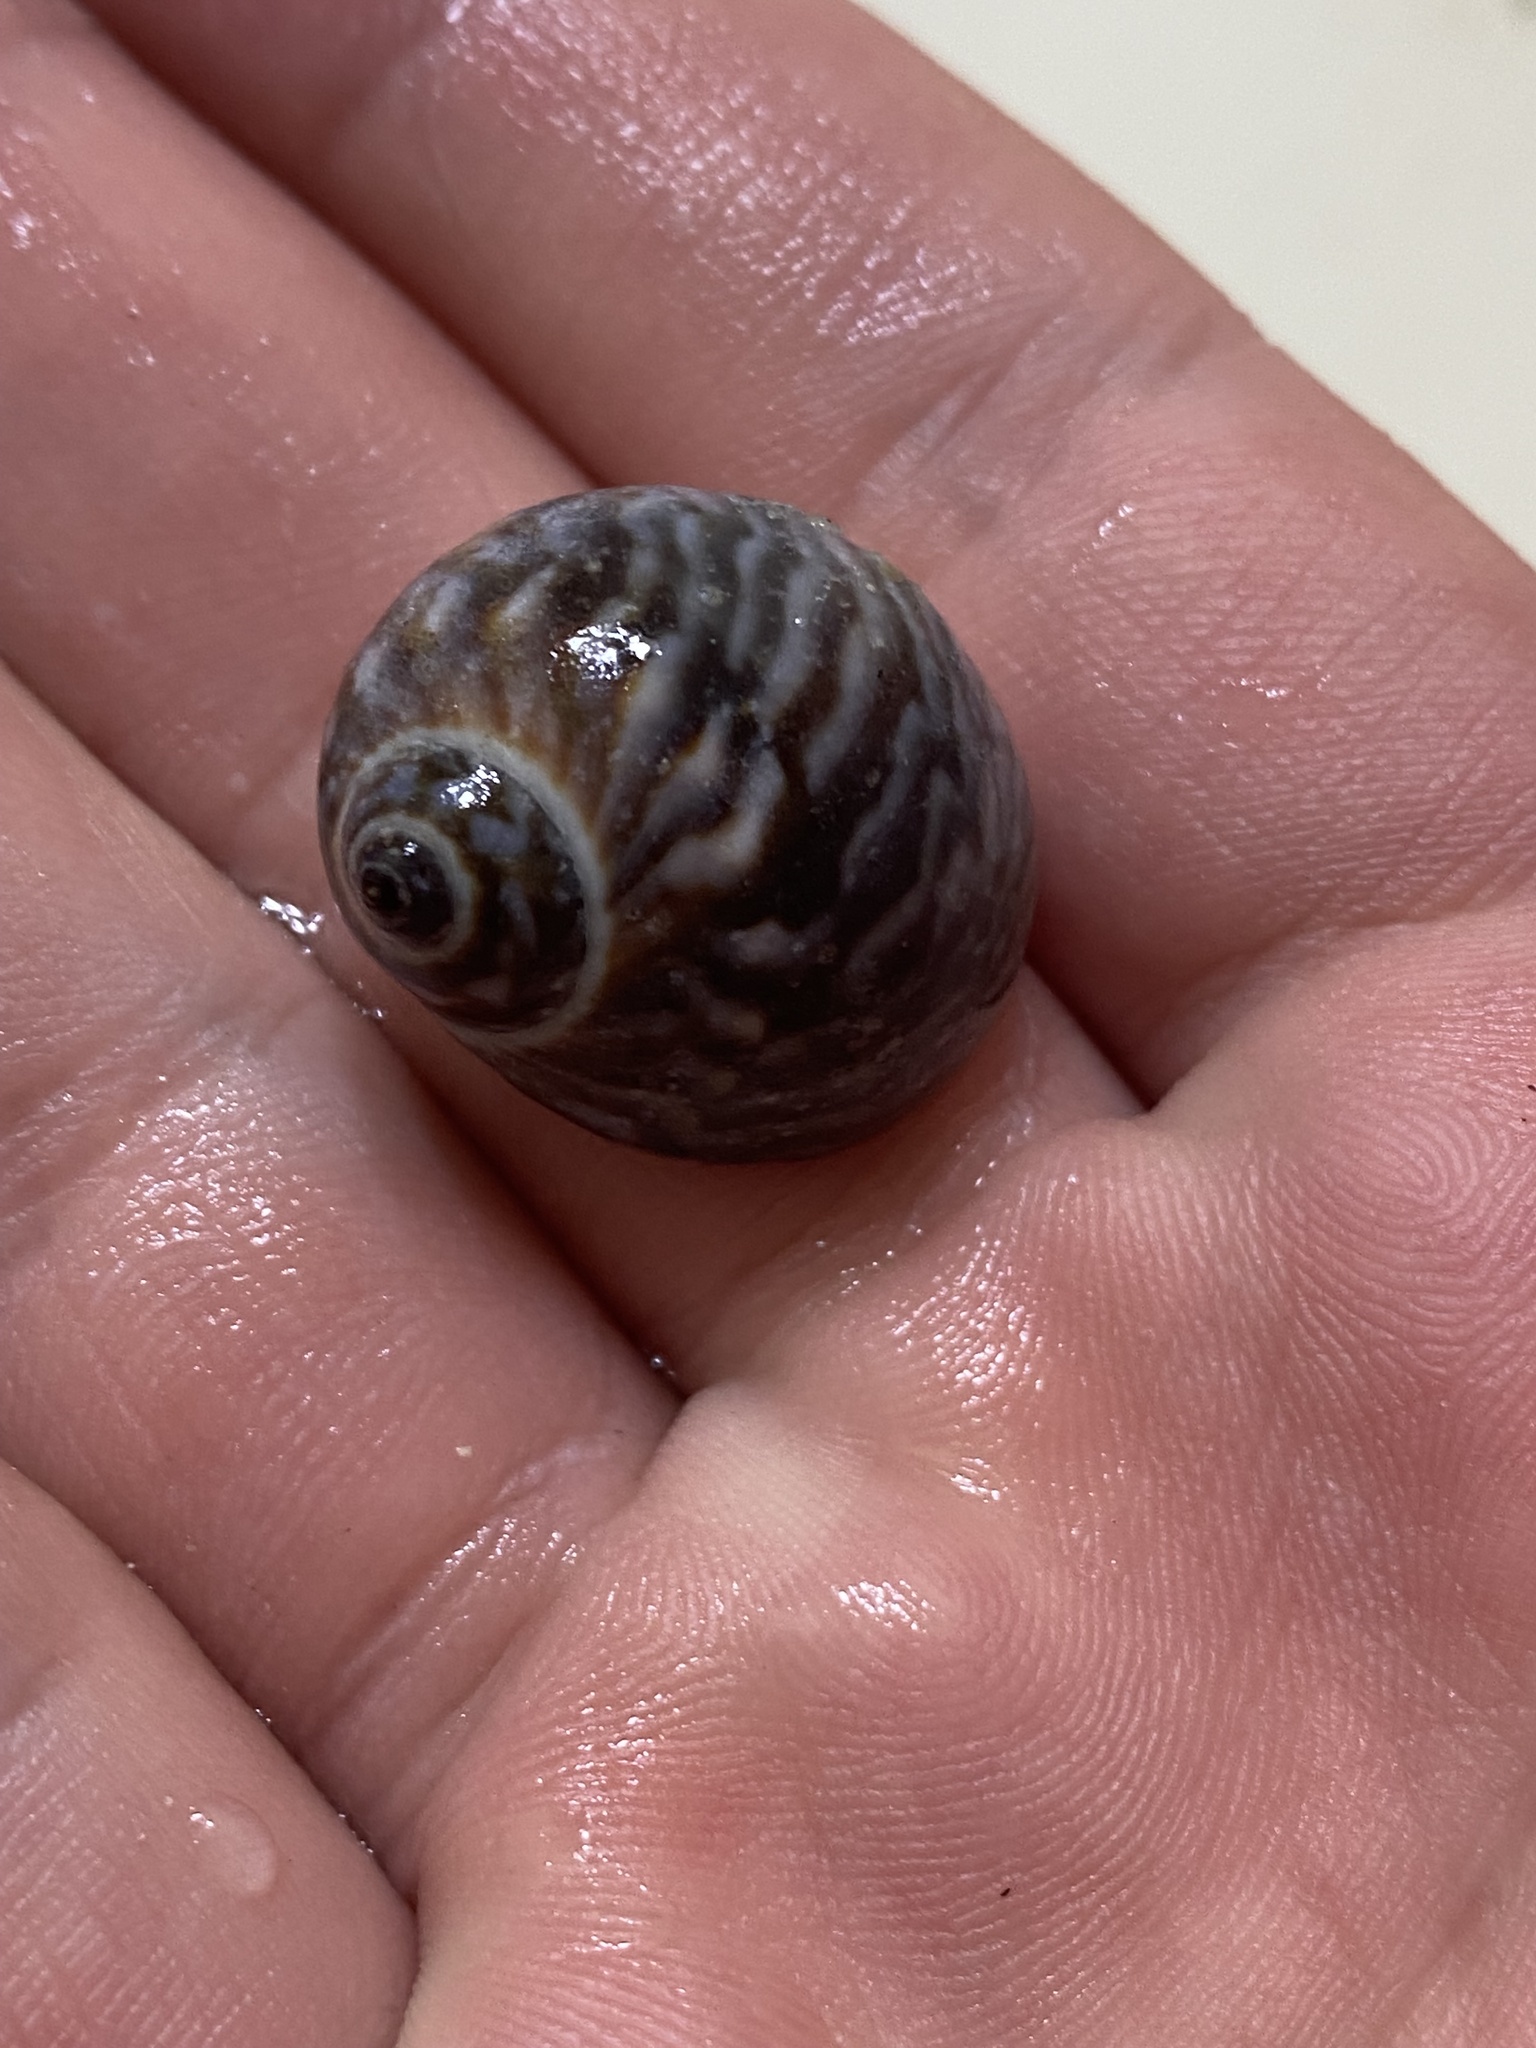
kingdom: Animalia
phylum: Mollusca
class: Gastropoda
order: Littorinimorpha
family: Naticidae
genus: Notocochlis
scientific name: Notocochlis chemnitzii
